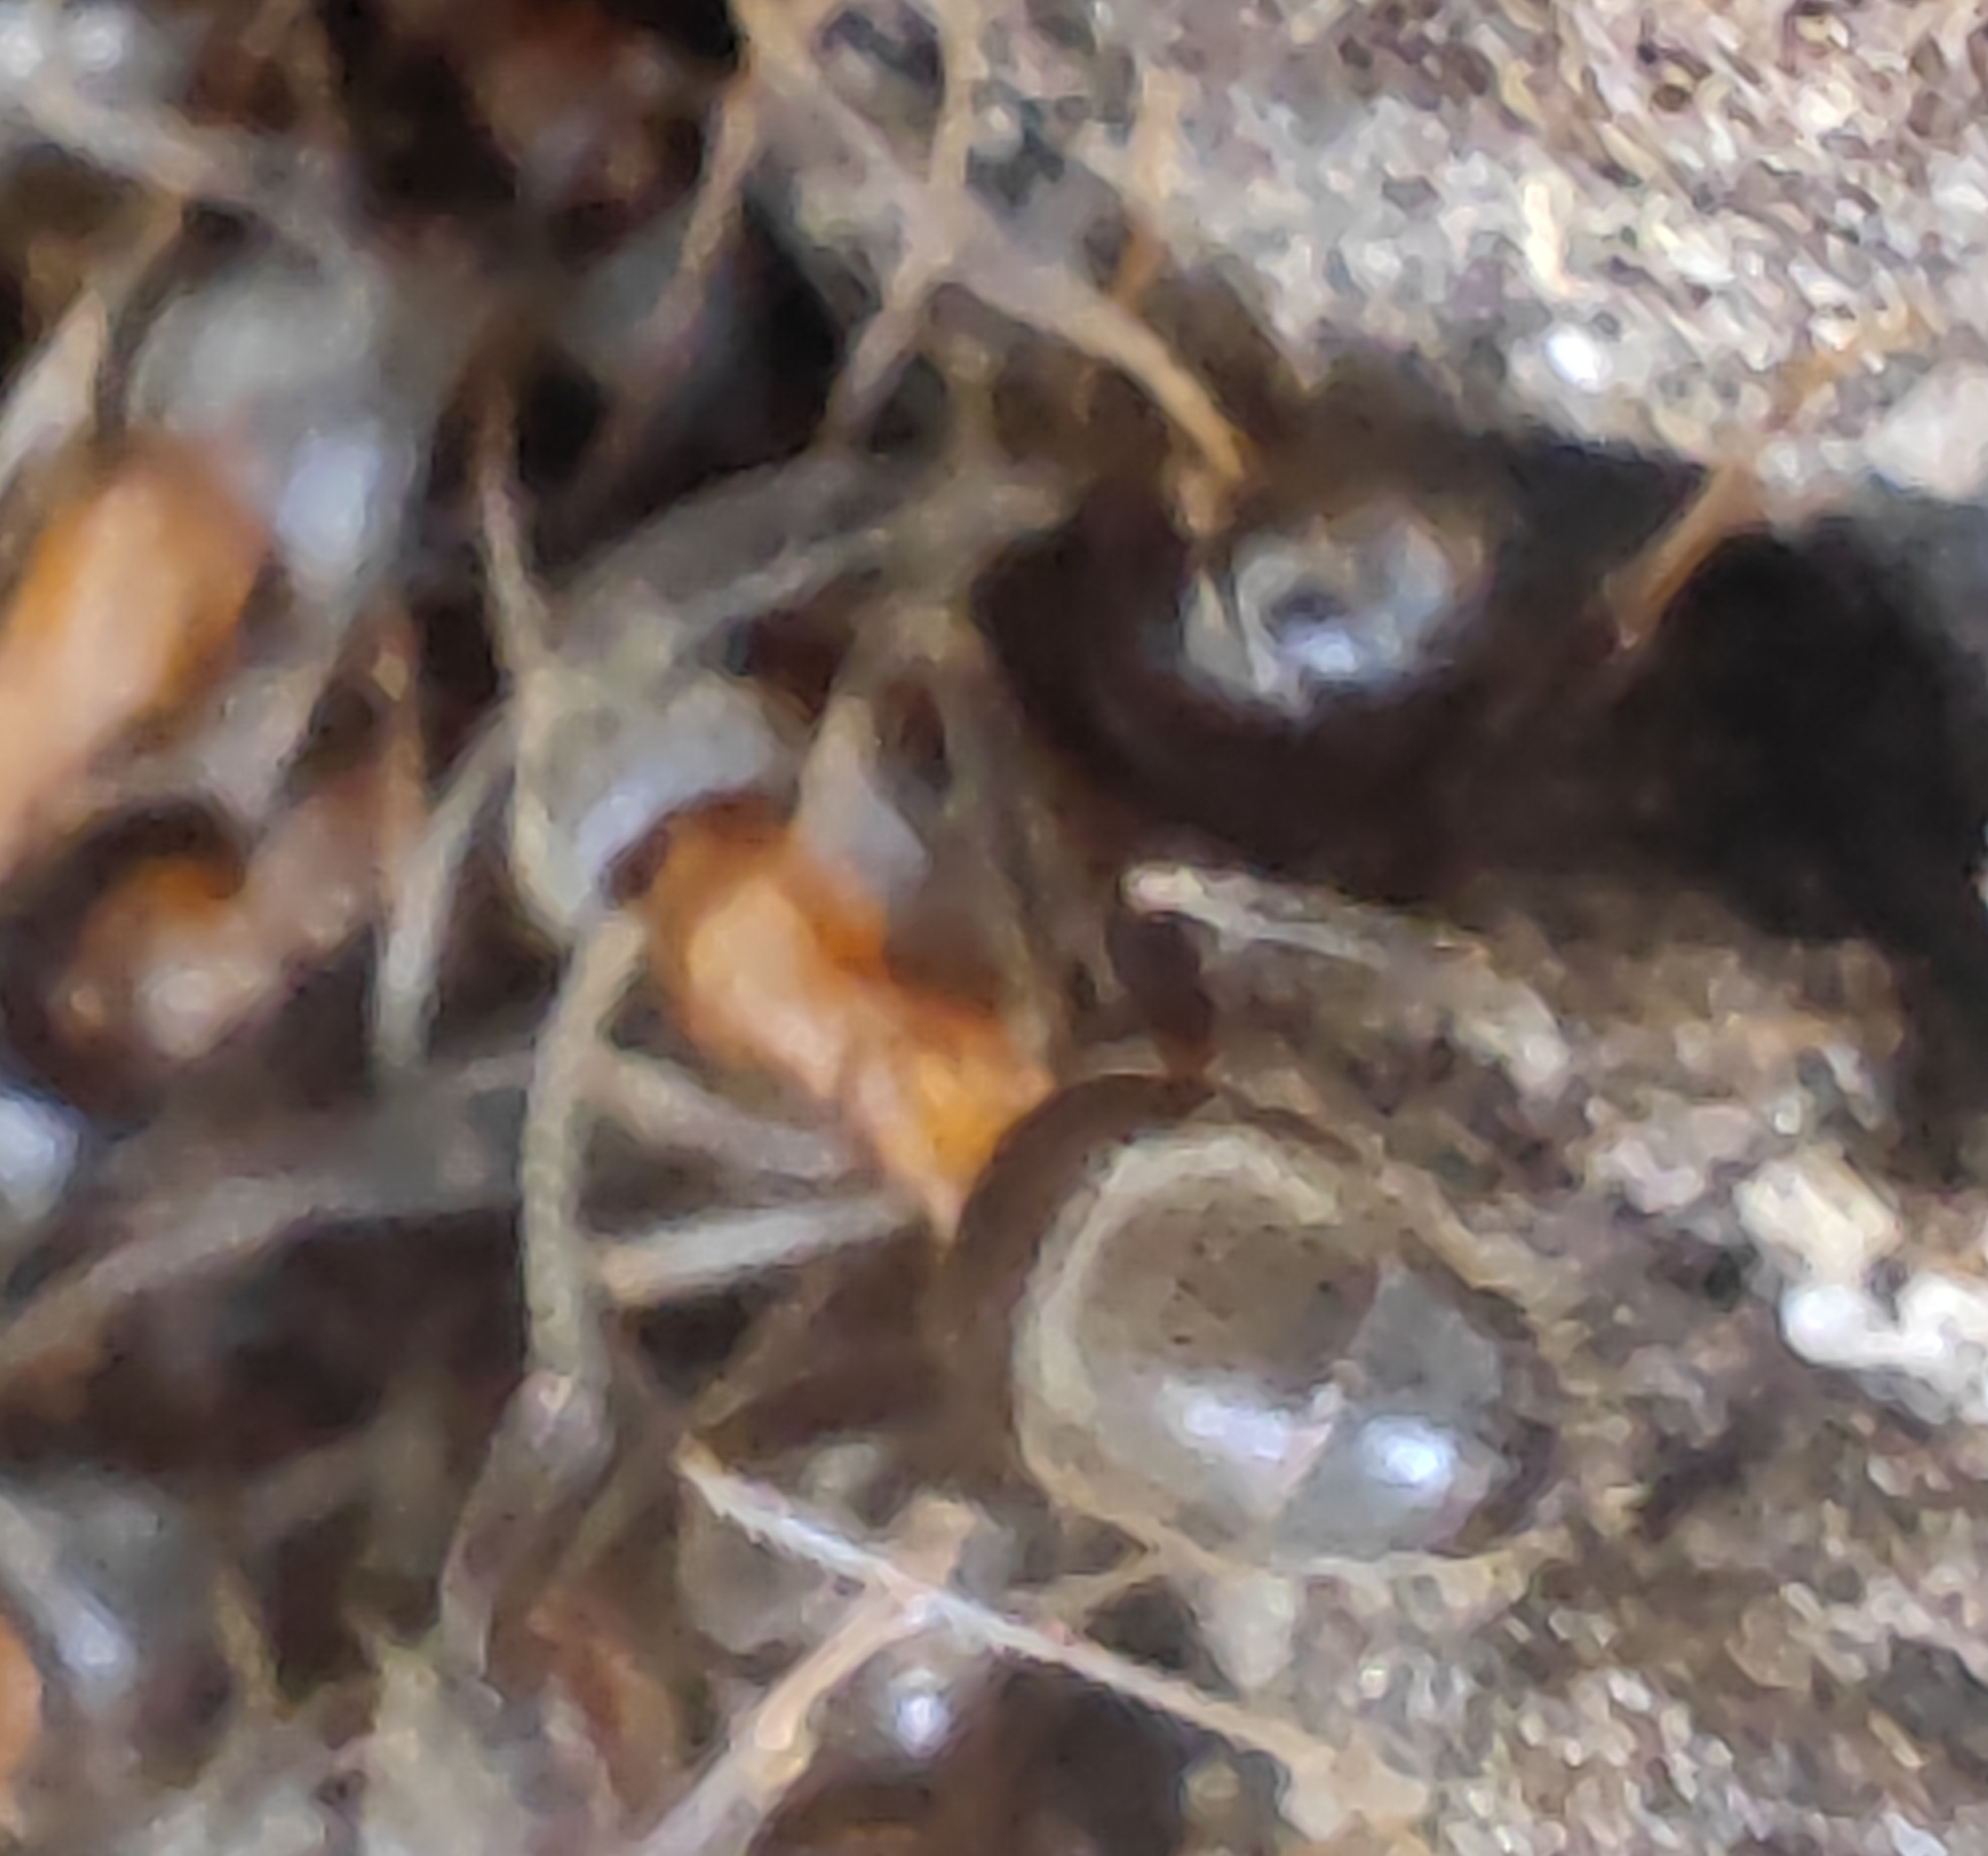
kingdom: Animalia
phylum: Arthropoda
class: Insecta
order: Hymenoptera
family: Formicidae
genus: Lasius
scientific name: Lasius emarginatus
